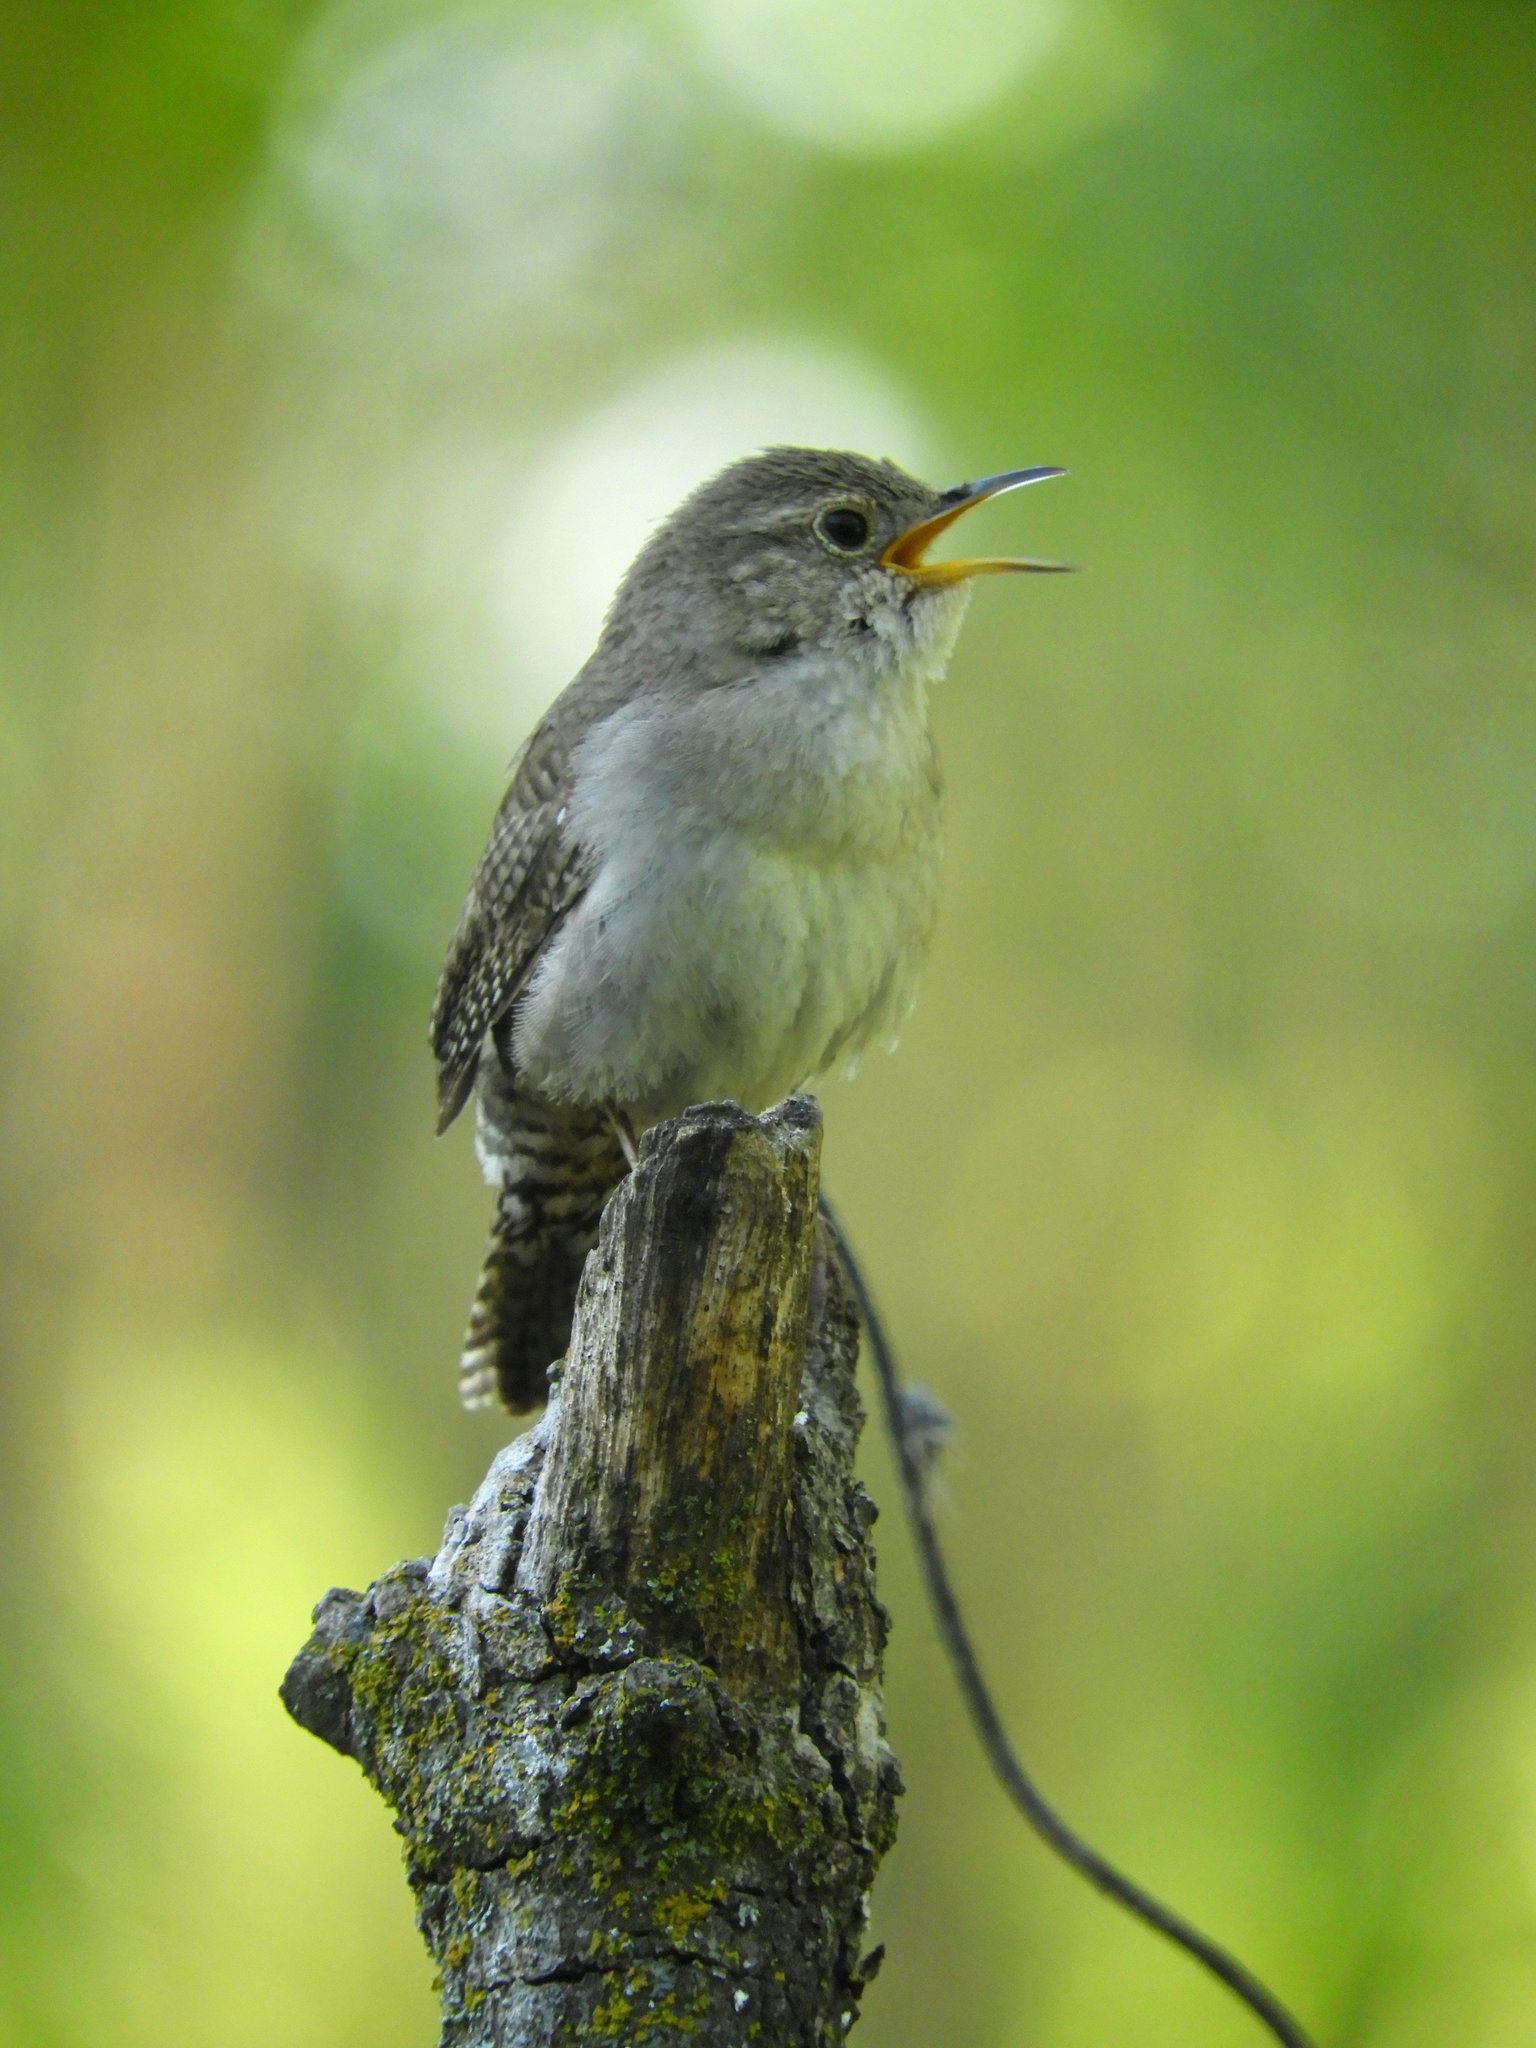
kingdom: Animalia
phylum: Chordata
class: Aves
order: Passeriformes
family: Troglodytidae
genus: Troglodytes
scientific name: Troglodytes aedon
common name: House wren
